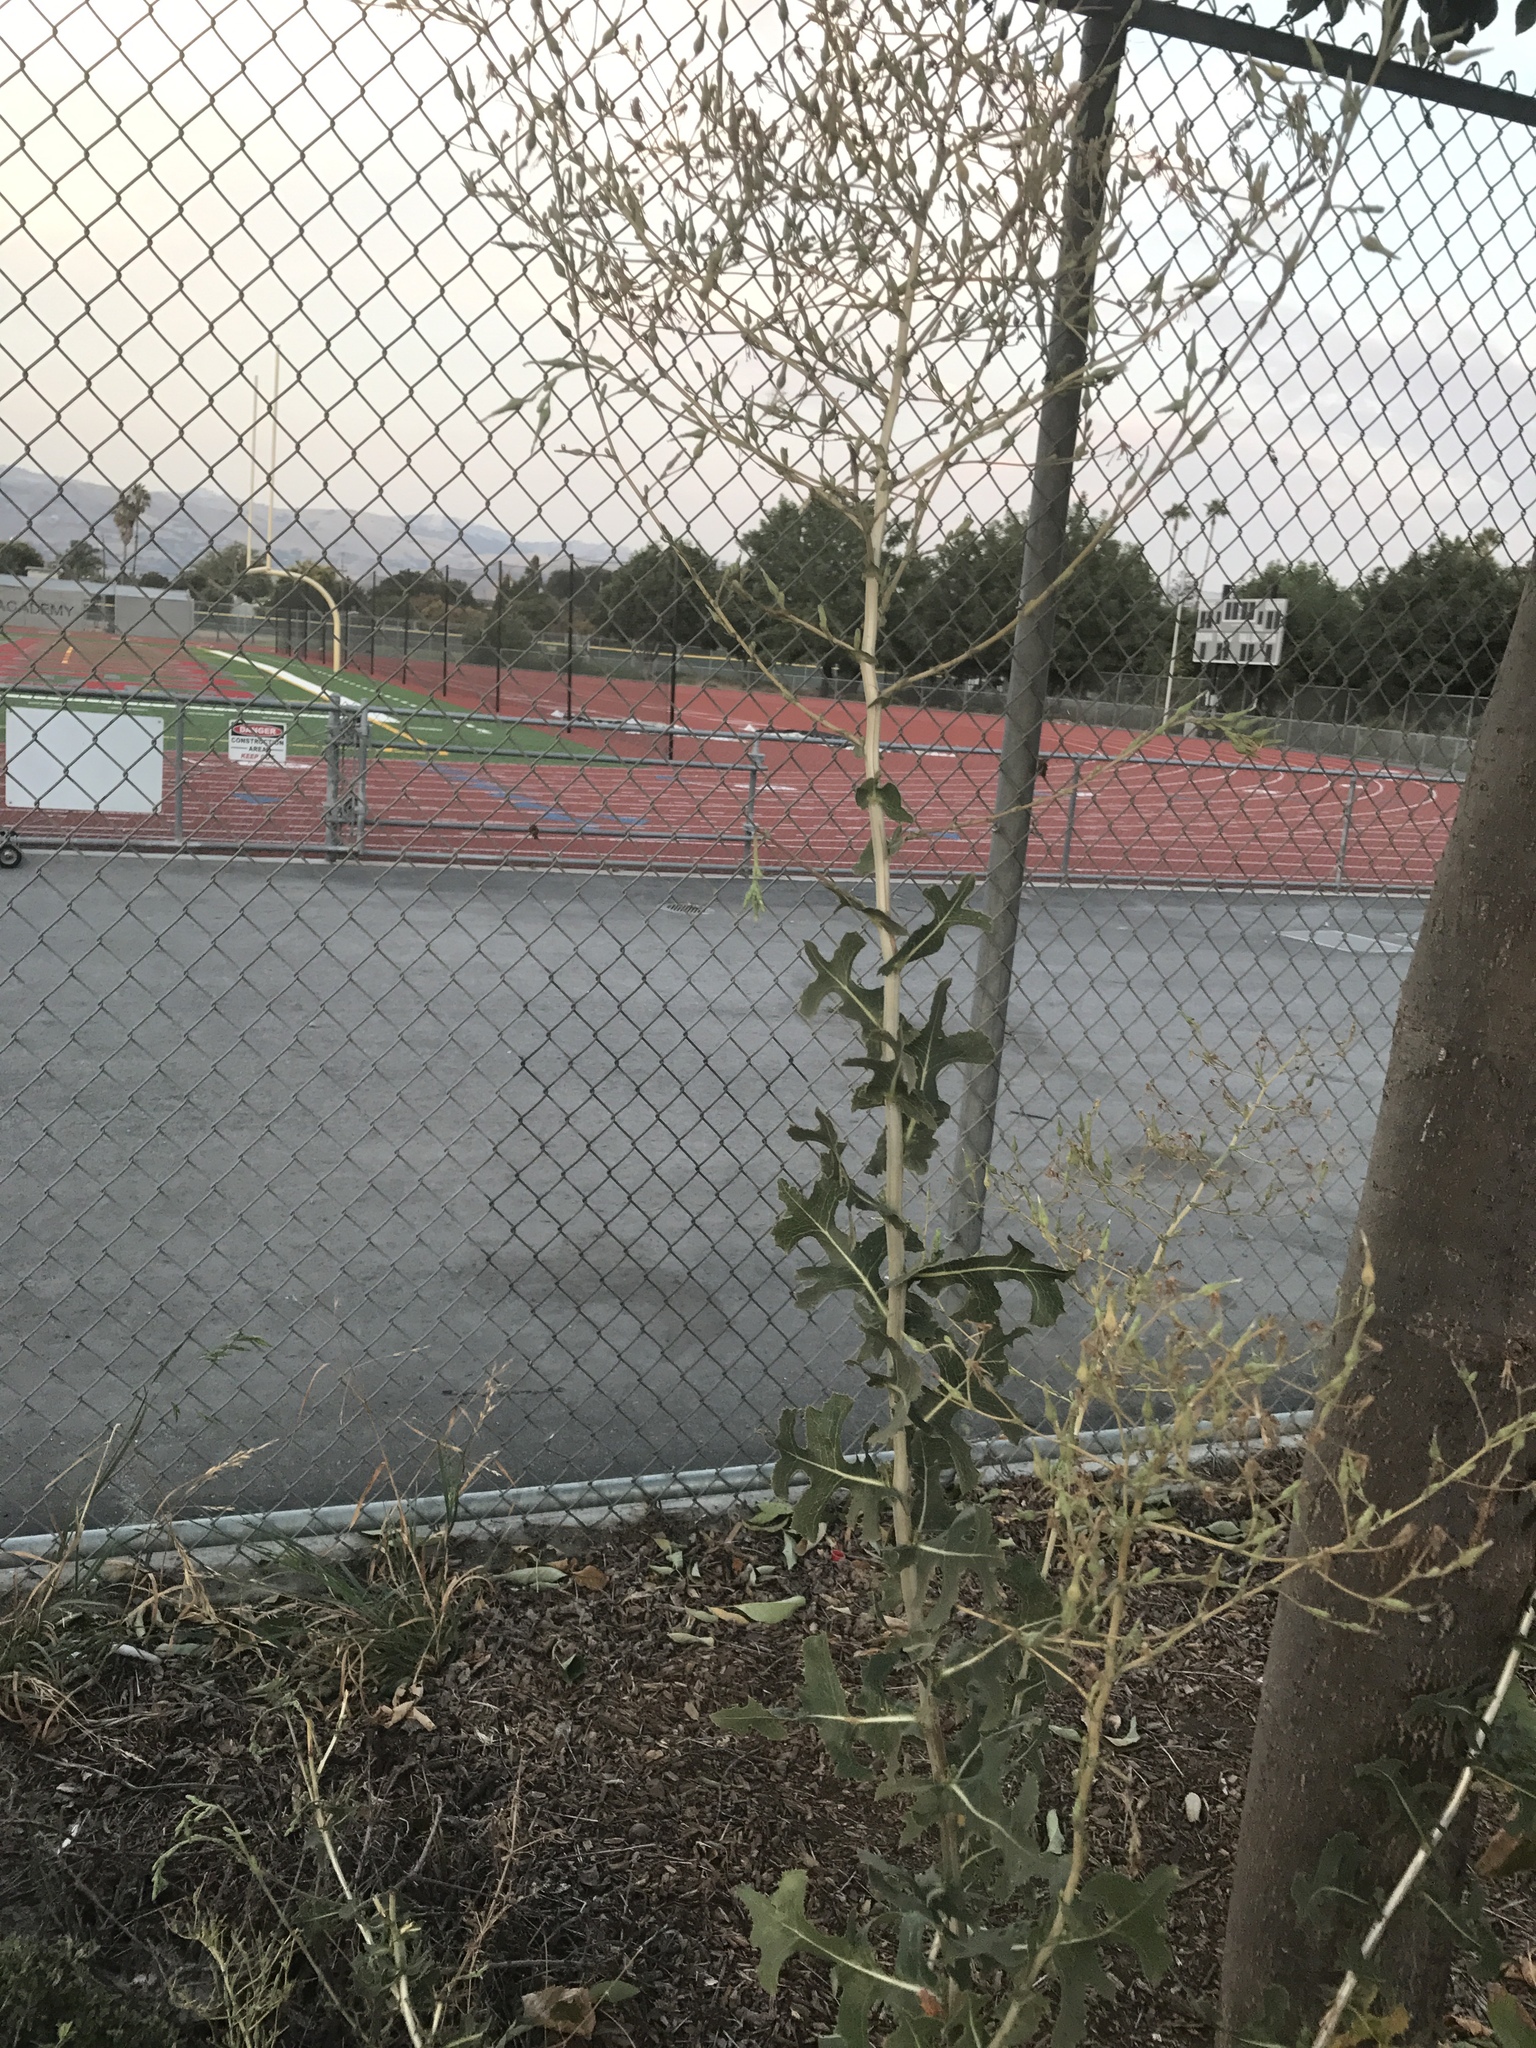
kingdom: Plantae
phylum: Tracheophyta
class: Magnoliopsida
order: Asterales
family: Asteraceae
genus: Lactuca
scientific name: Lactuca serriola
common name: Prickly lettuce
